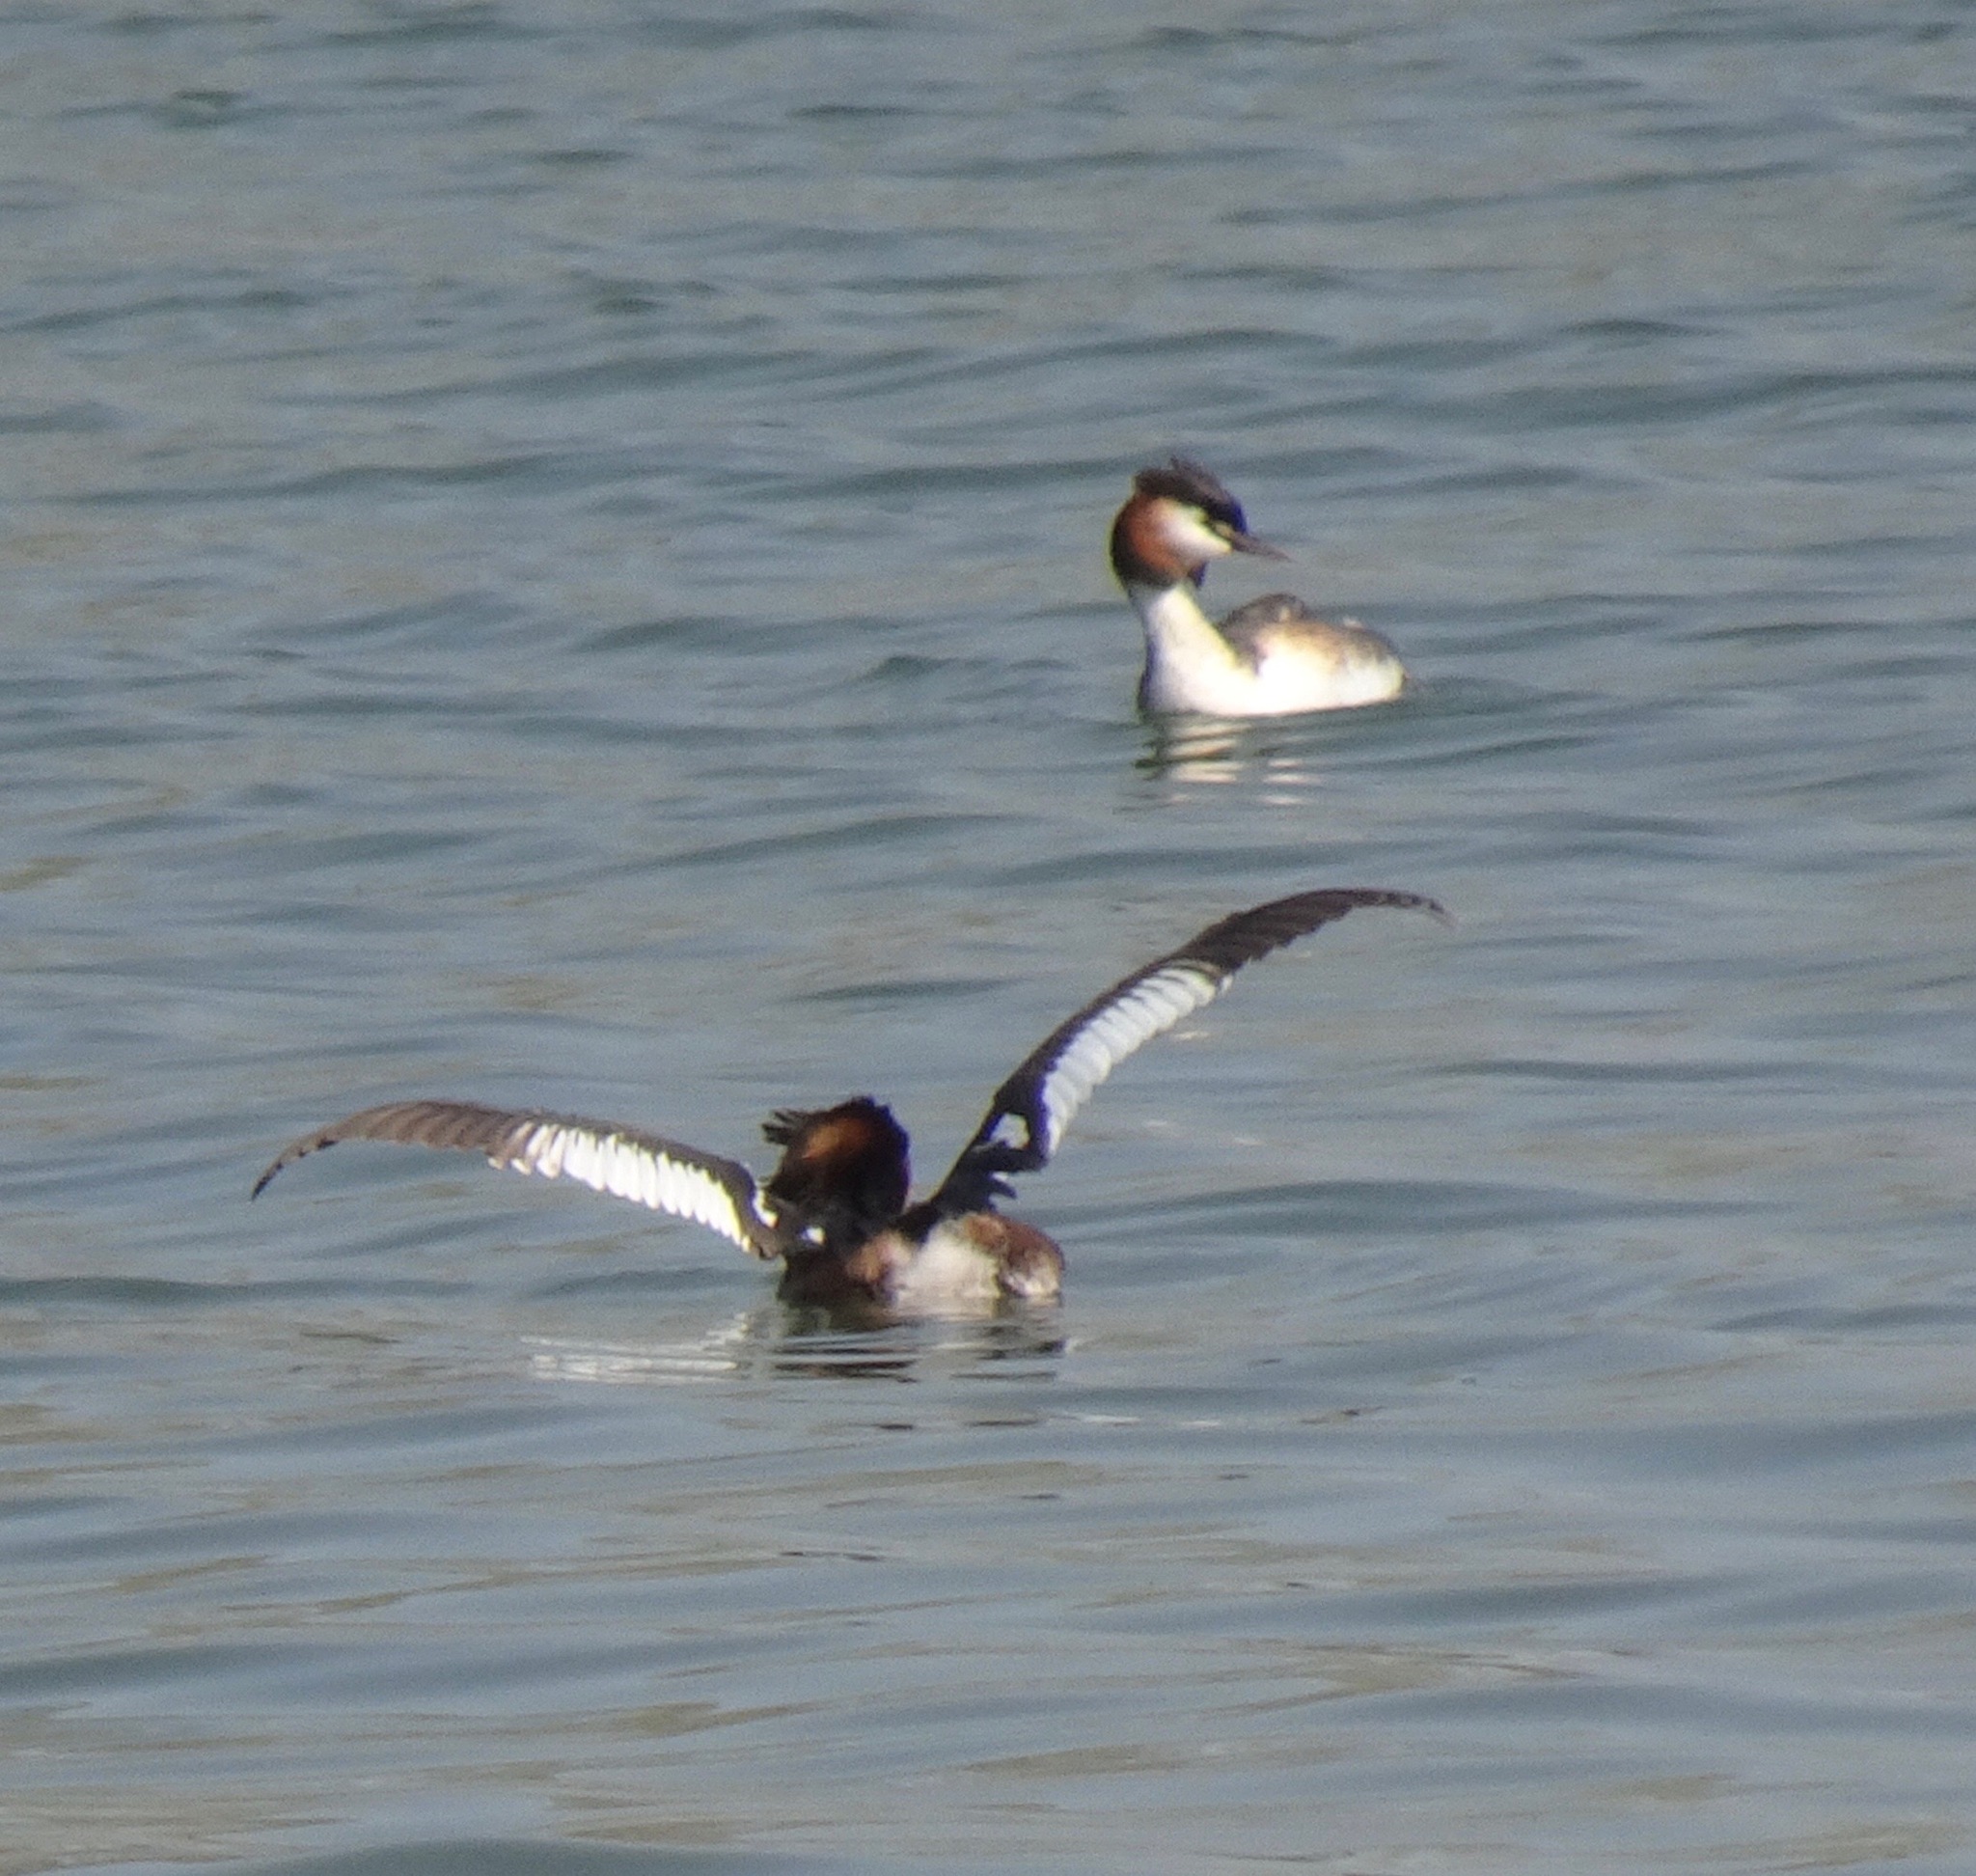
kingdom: Animalia
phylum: Chordata
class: Aves
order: Podicipediformes
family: Podicipedidae
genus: Podiceps
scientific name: Podiceps cristatus
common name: Great crested grebe
